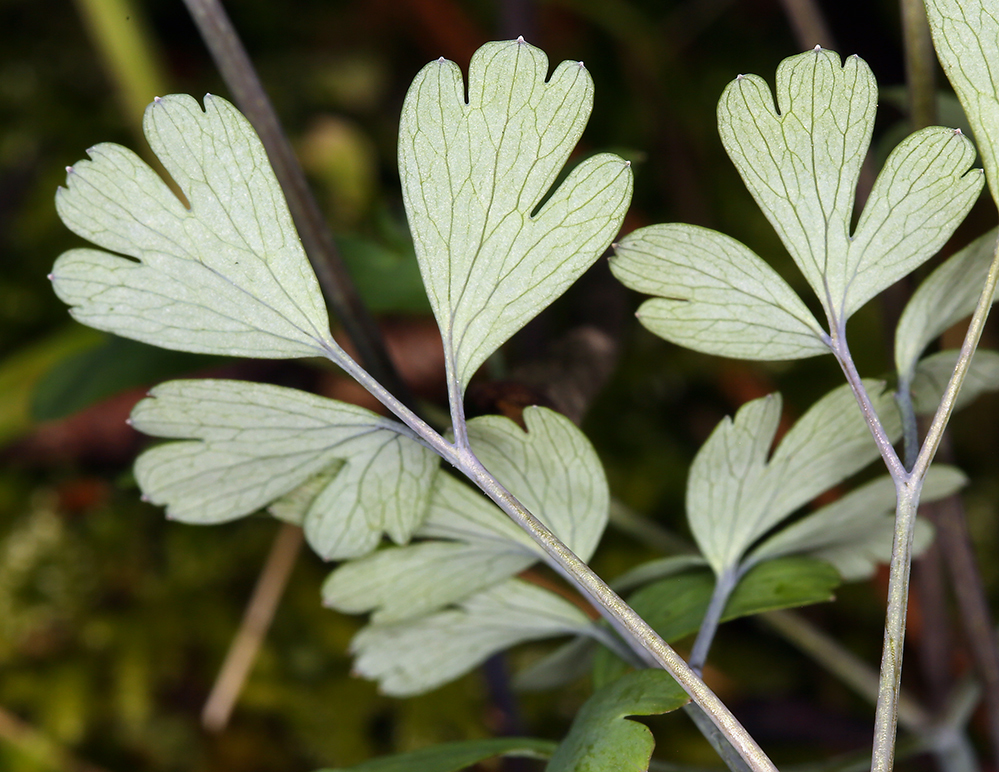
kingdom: Plantae
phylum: Tracheophyta
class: Magnoliopsida
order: Ranunculales
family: Ranunculaceae
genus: Enemion
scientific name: Enemion occidentale
